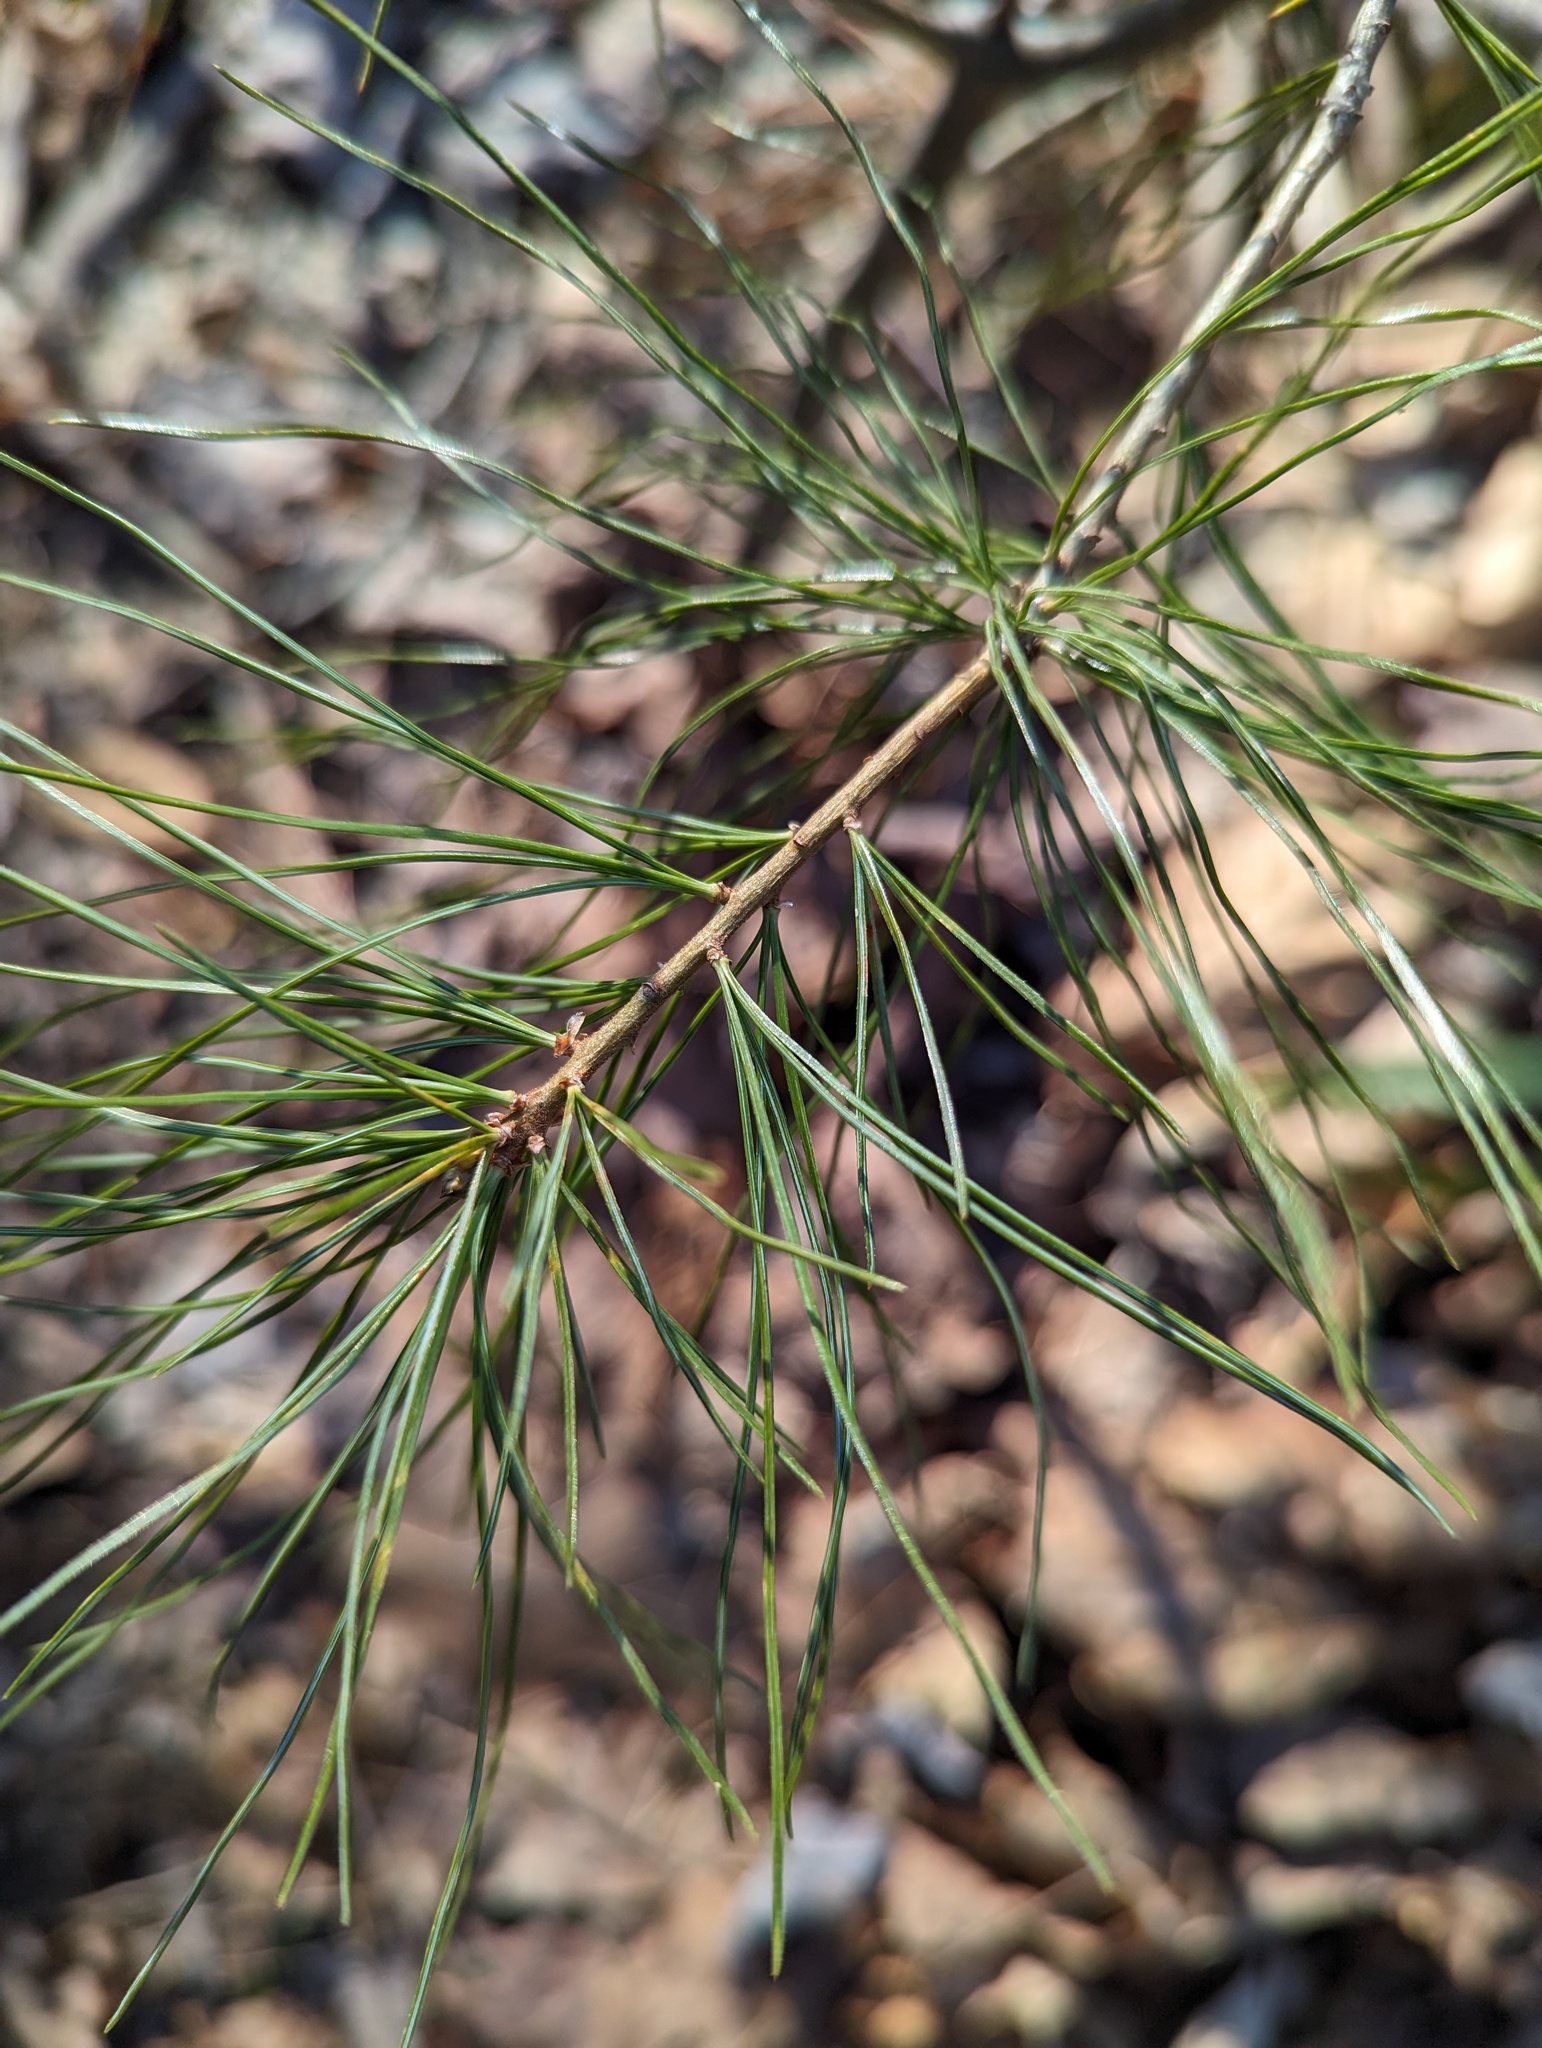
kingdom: Plantae
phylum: Tracheophyta
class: Pinopsida
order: Pinales
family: Pinaceae
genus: Pinus
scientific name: Pinus strobus
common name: Weymouth pine
